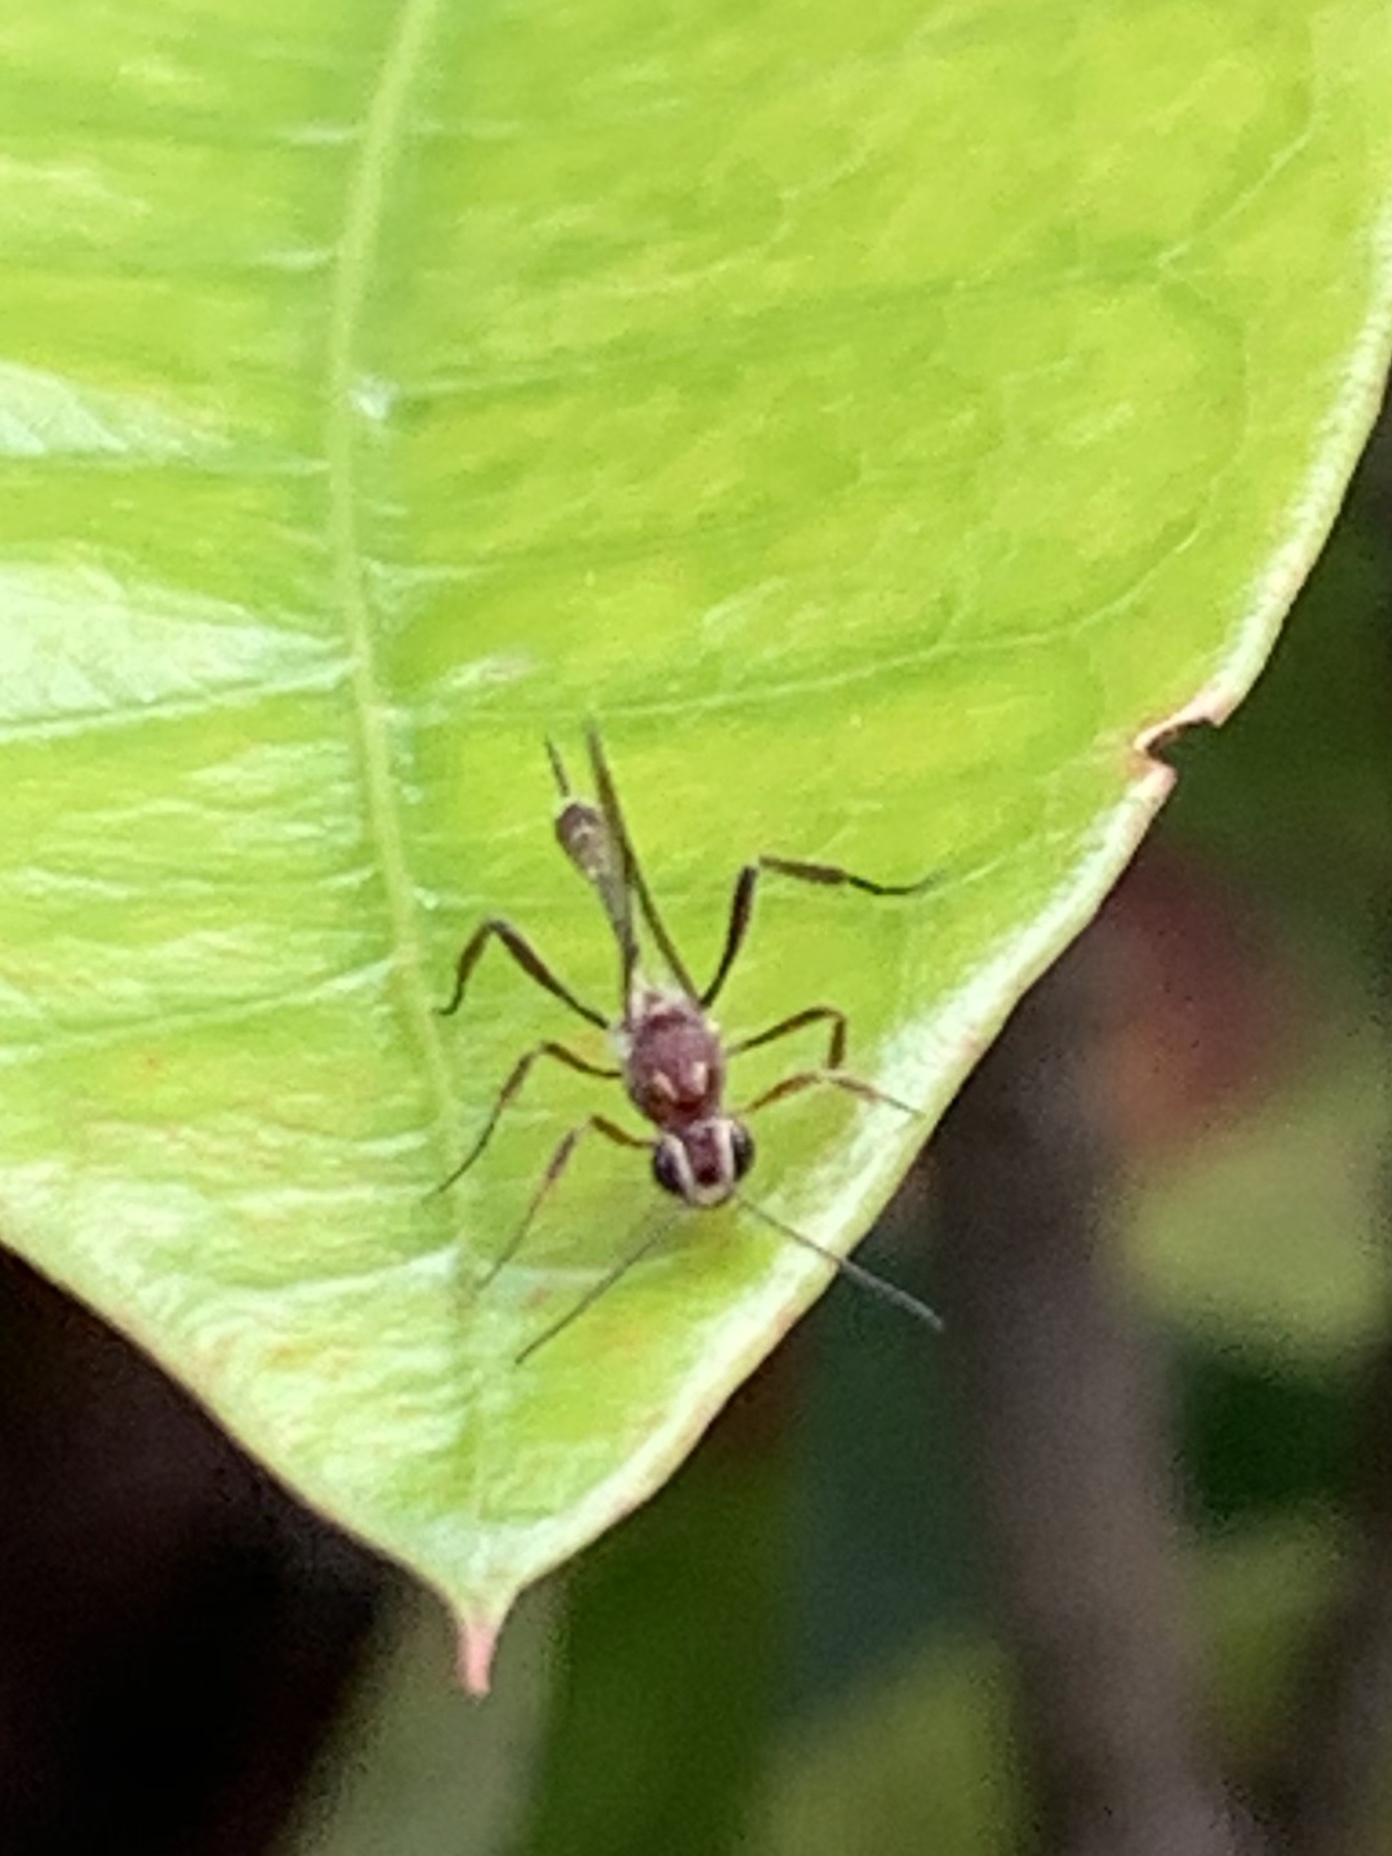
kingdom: Animalia
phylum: Arthropoda
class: Insecta
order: Hymenoptera
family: Ichneumonidae
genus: Anomalon
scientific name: Anomalon
